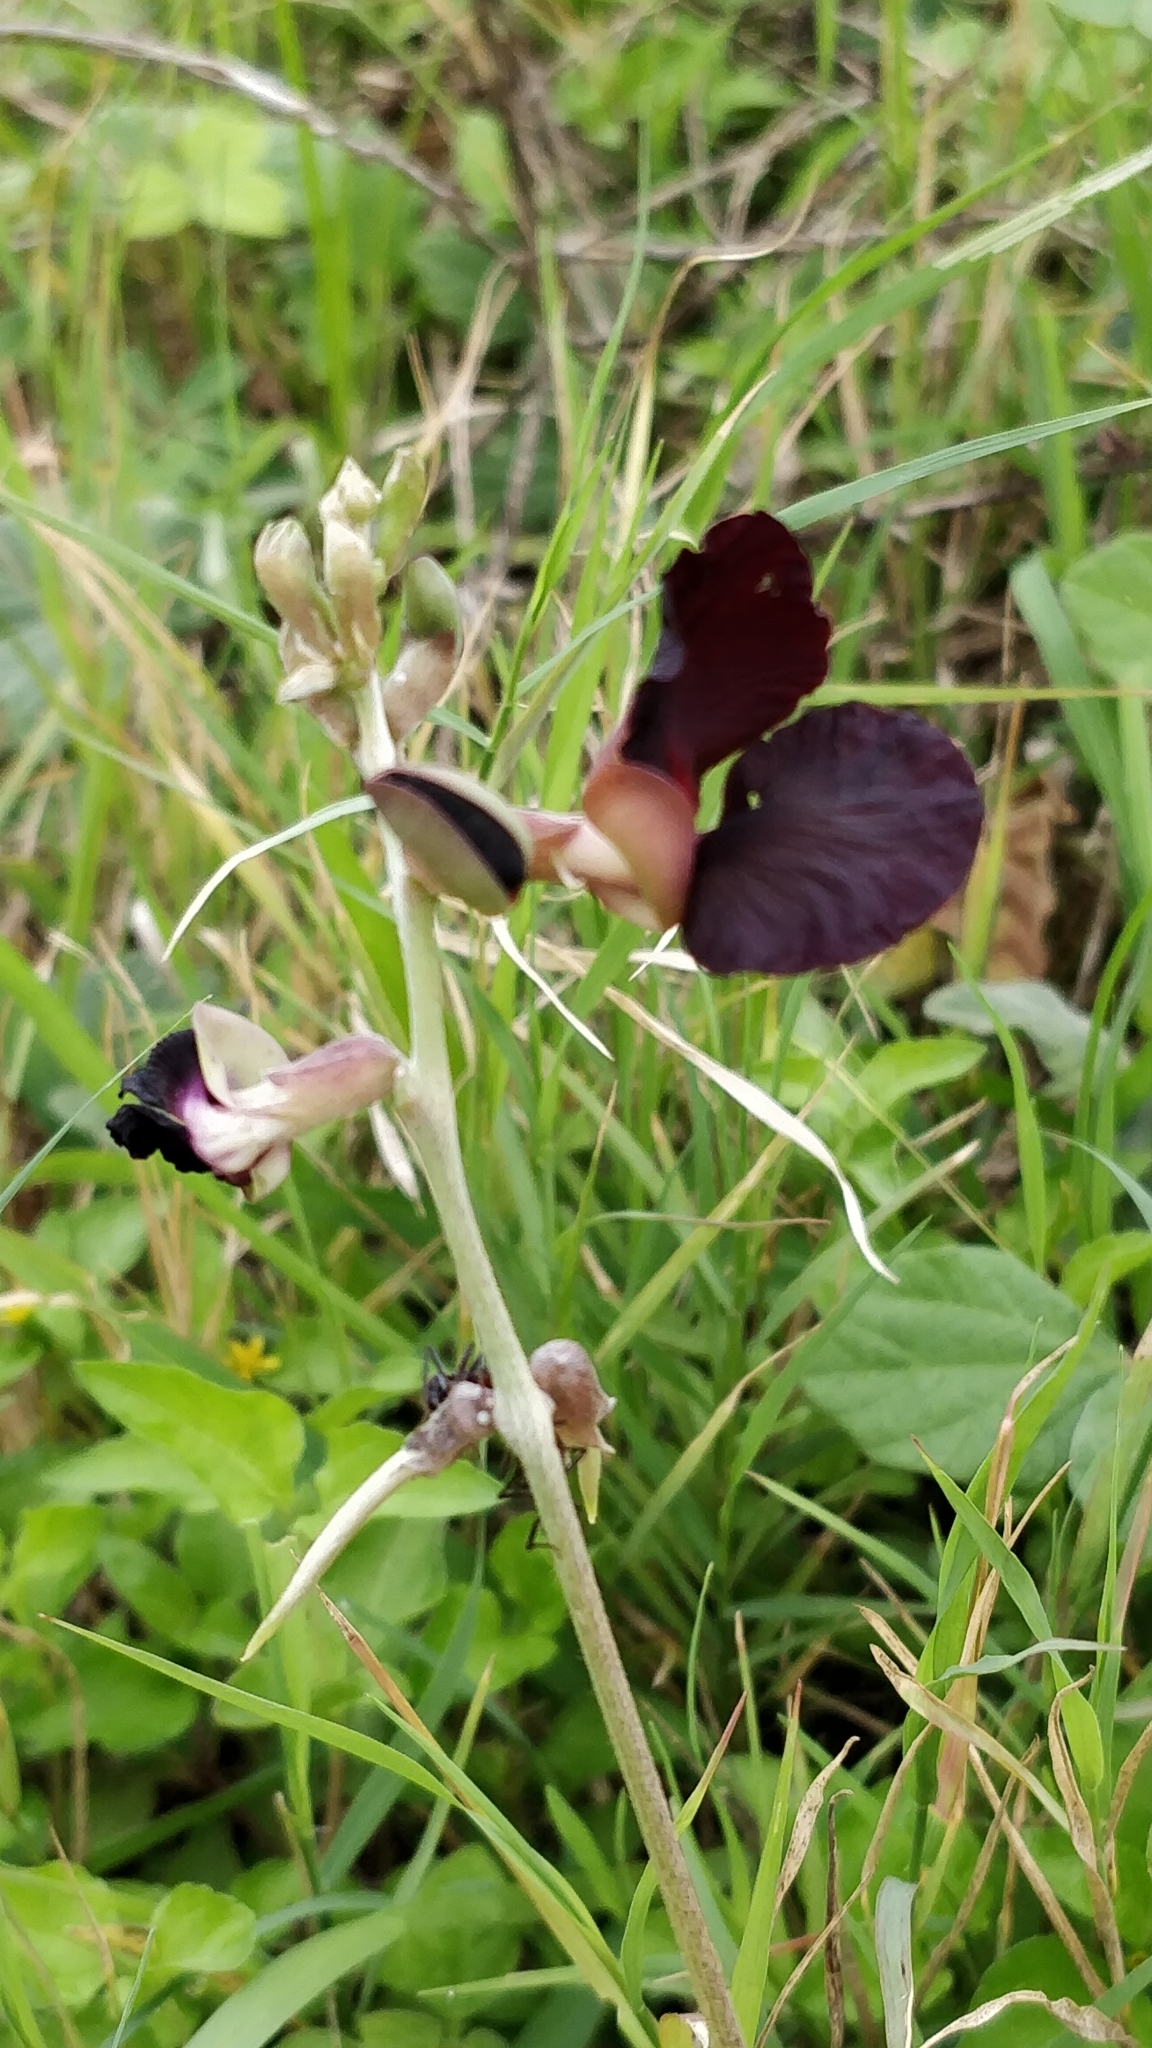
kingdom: Plantae
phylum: Tracheophyta
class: Magnoliopsida
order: Fabales
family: Fabaceae
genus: Macroptilium
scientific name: Macroptilium atropurpureum
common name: Purple bushbean
